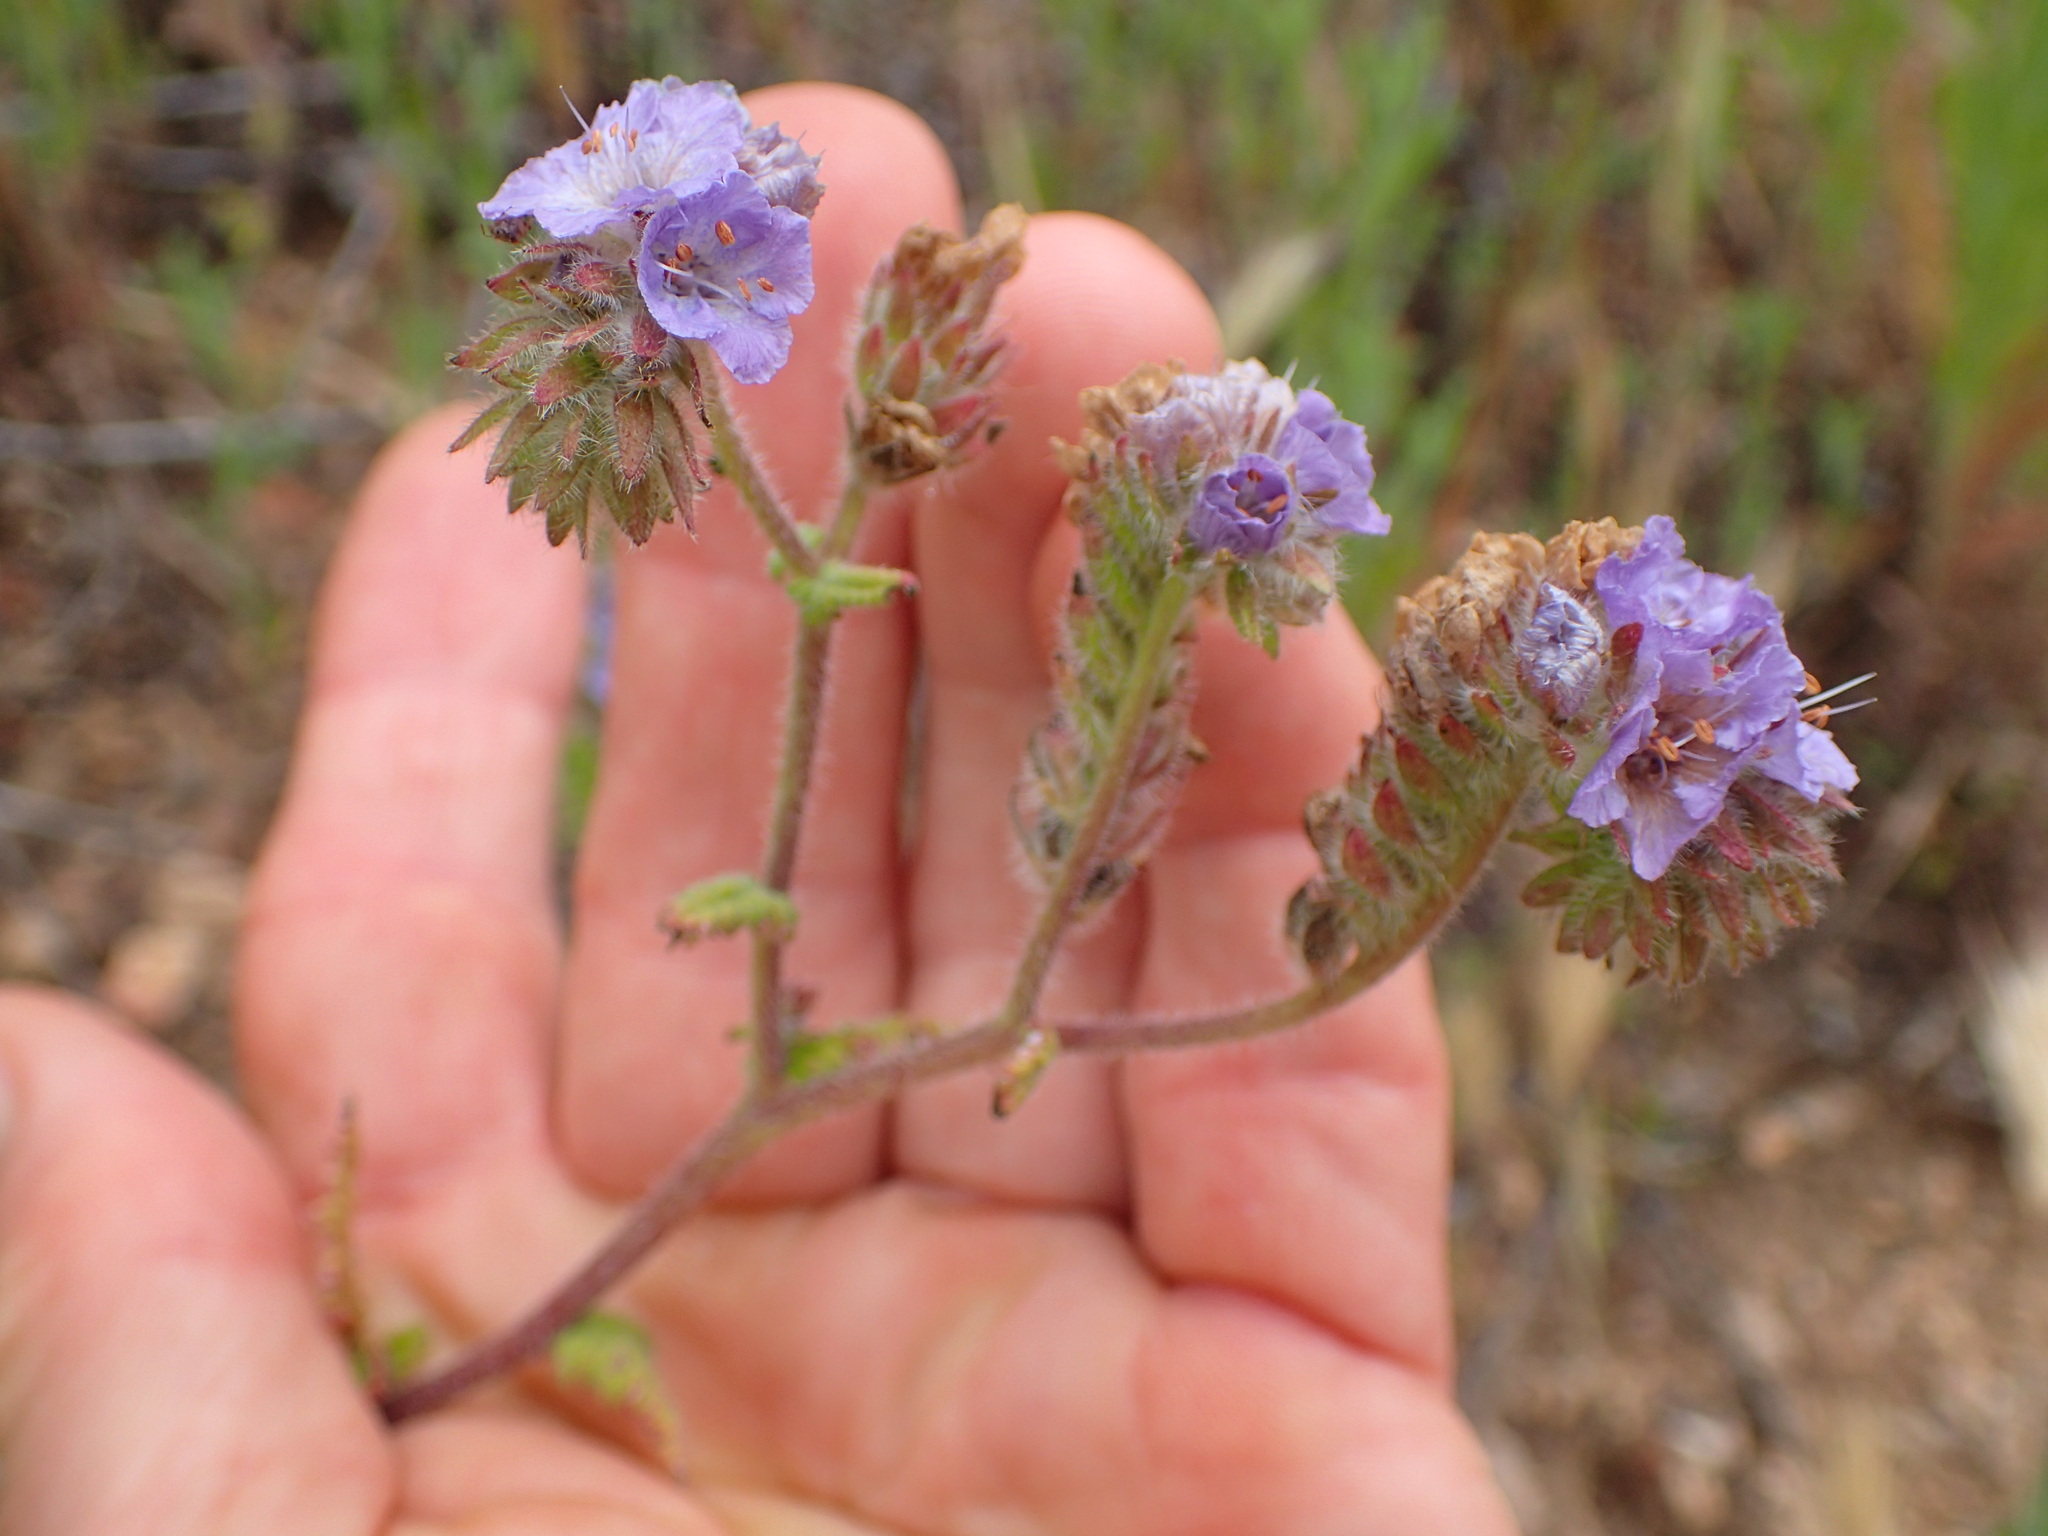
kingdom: Plantae
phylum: Tracheophyta
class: Magnoliopsida
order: Boraginales
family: Hydrophyllaceae
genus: Phacelia
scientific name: Phacelia distans
